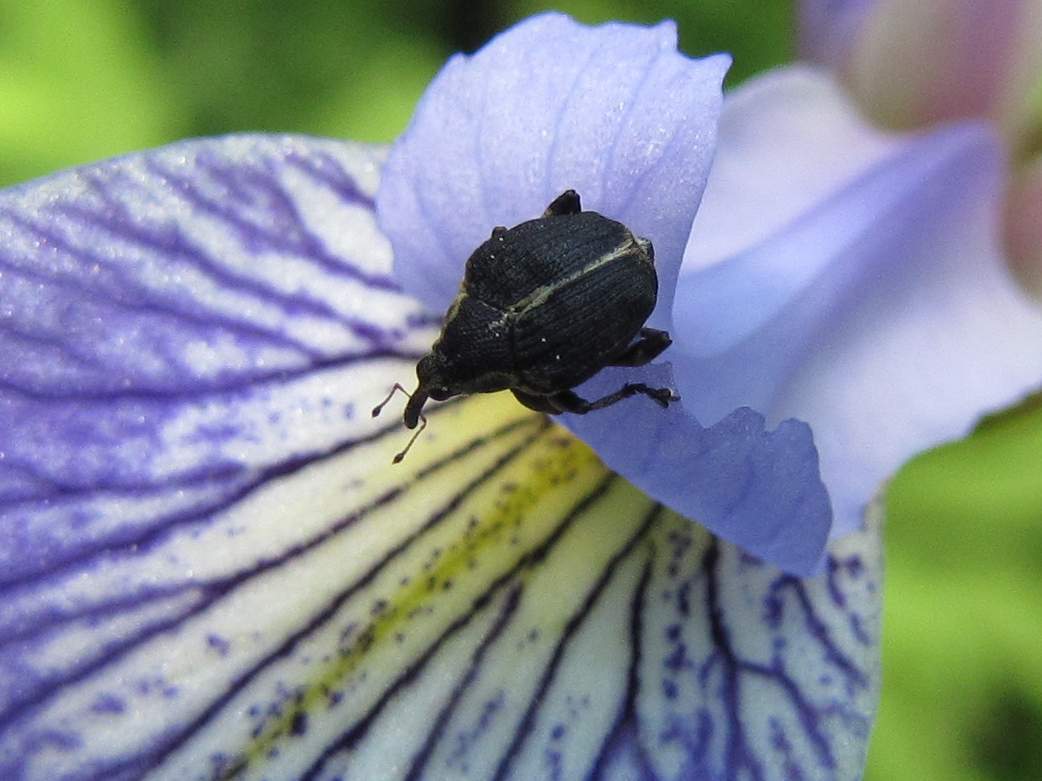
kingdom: Animalia
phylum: Arthropoda
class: Insecta
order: Coleoptera
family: Curculionidae
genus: Mononychus
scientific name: Mononychus vulpeculus
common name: Iris weevil
